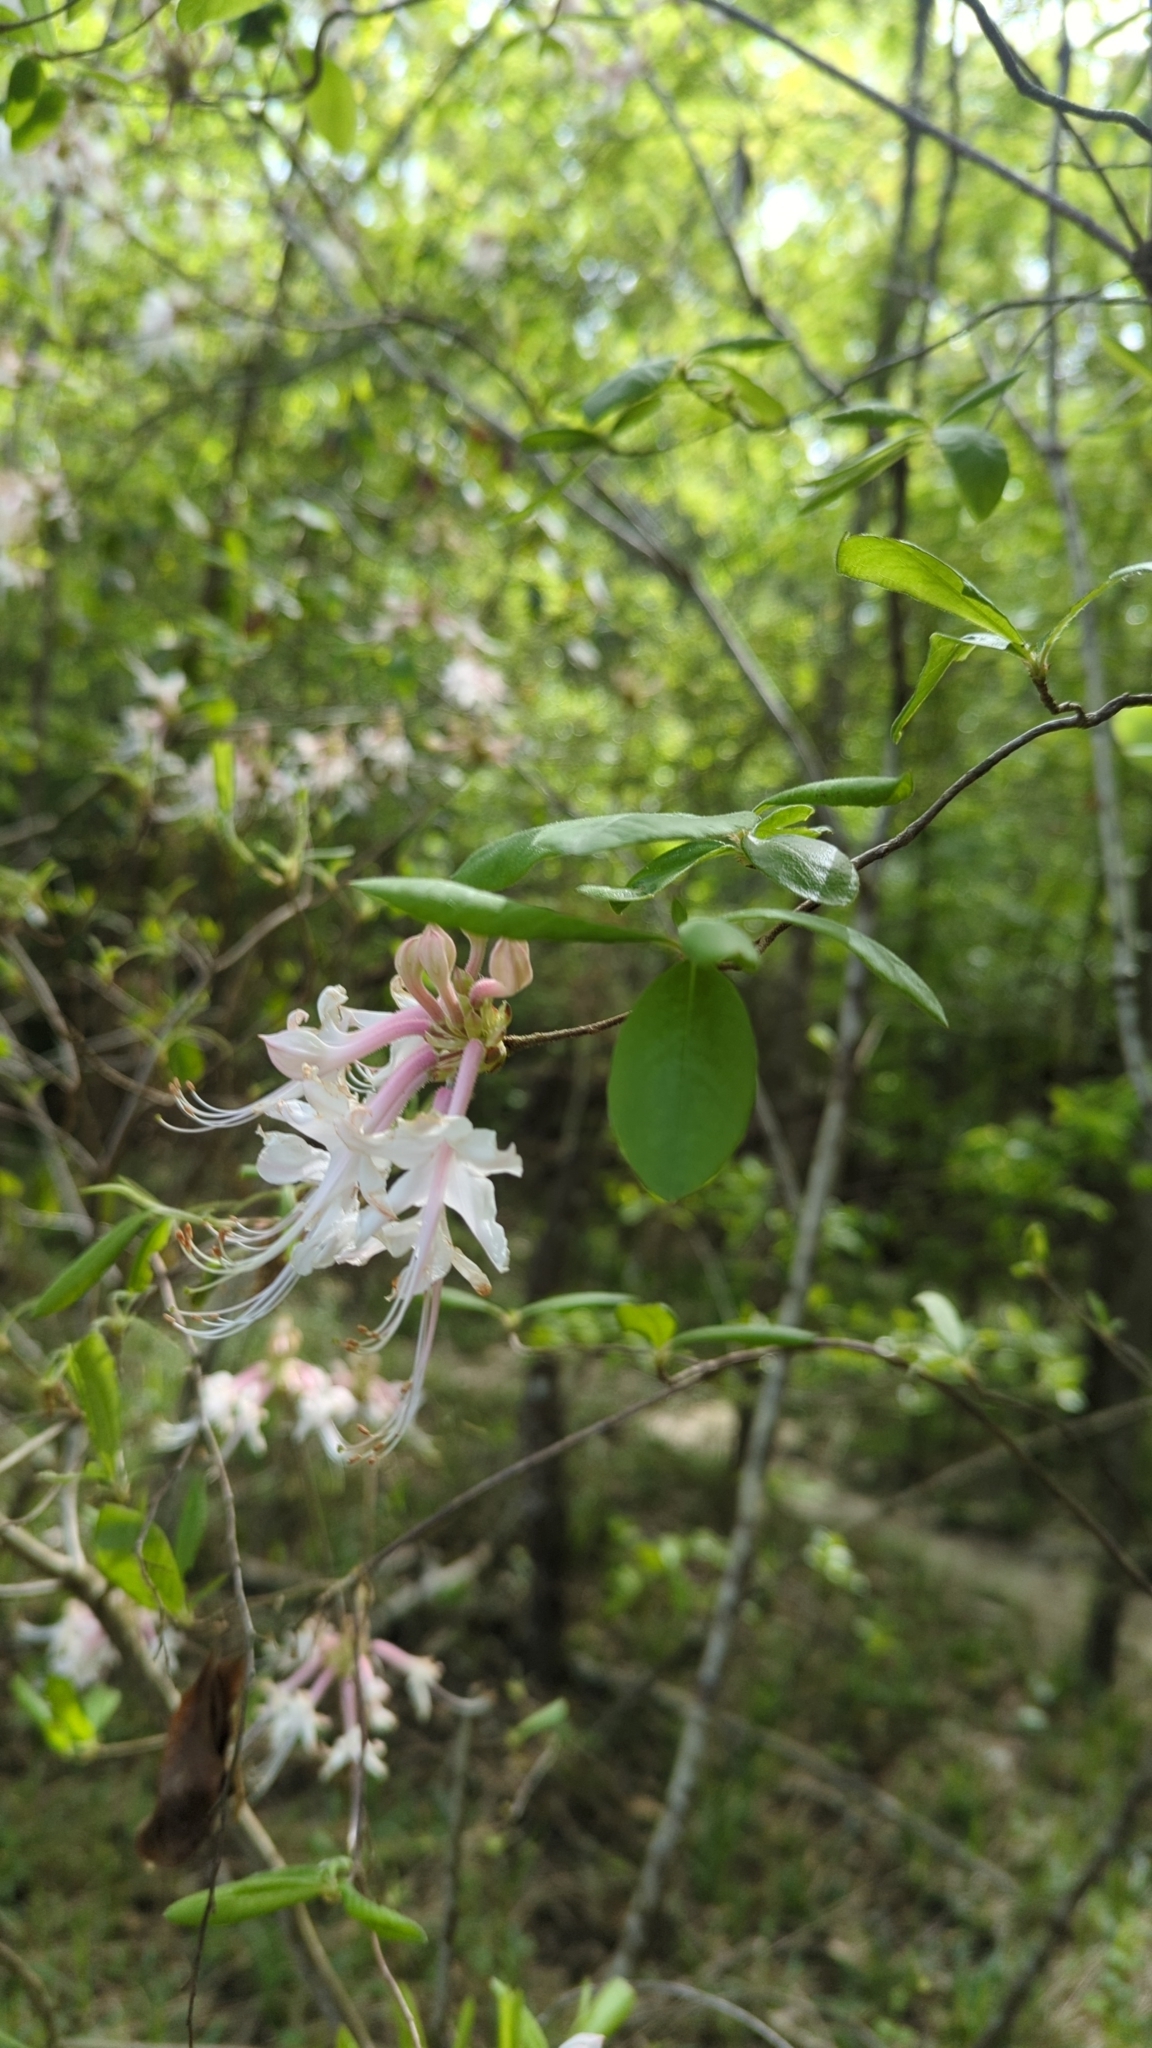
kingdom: Plantae
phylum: Tracheophyta
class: Magnoliopsida
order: Ericales
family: Ericaceae
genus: Rhododendron
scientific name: Rhododendron canescens
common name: Mountain azalea
